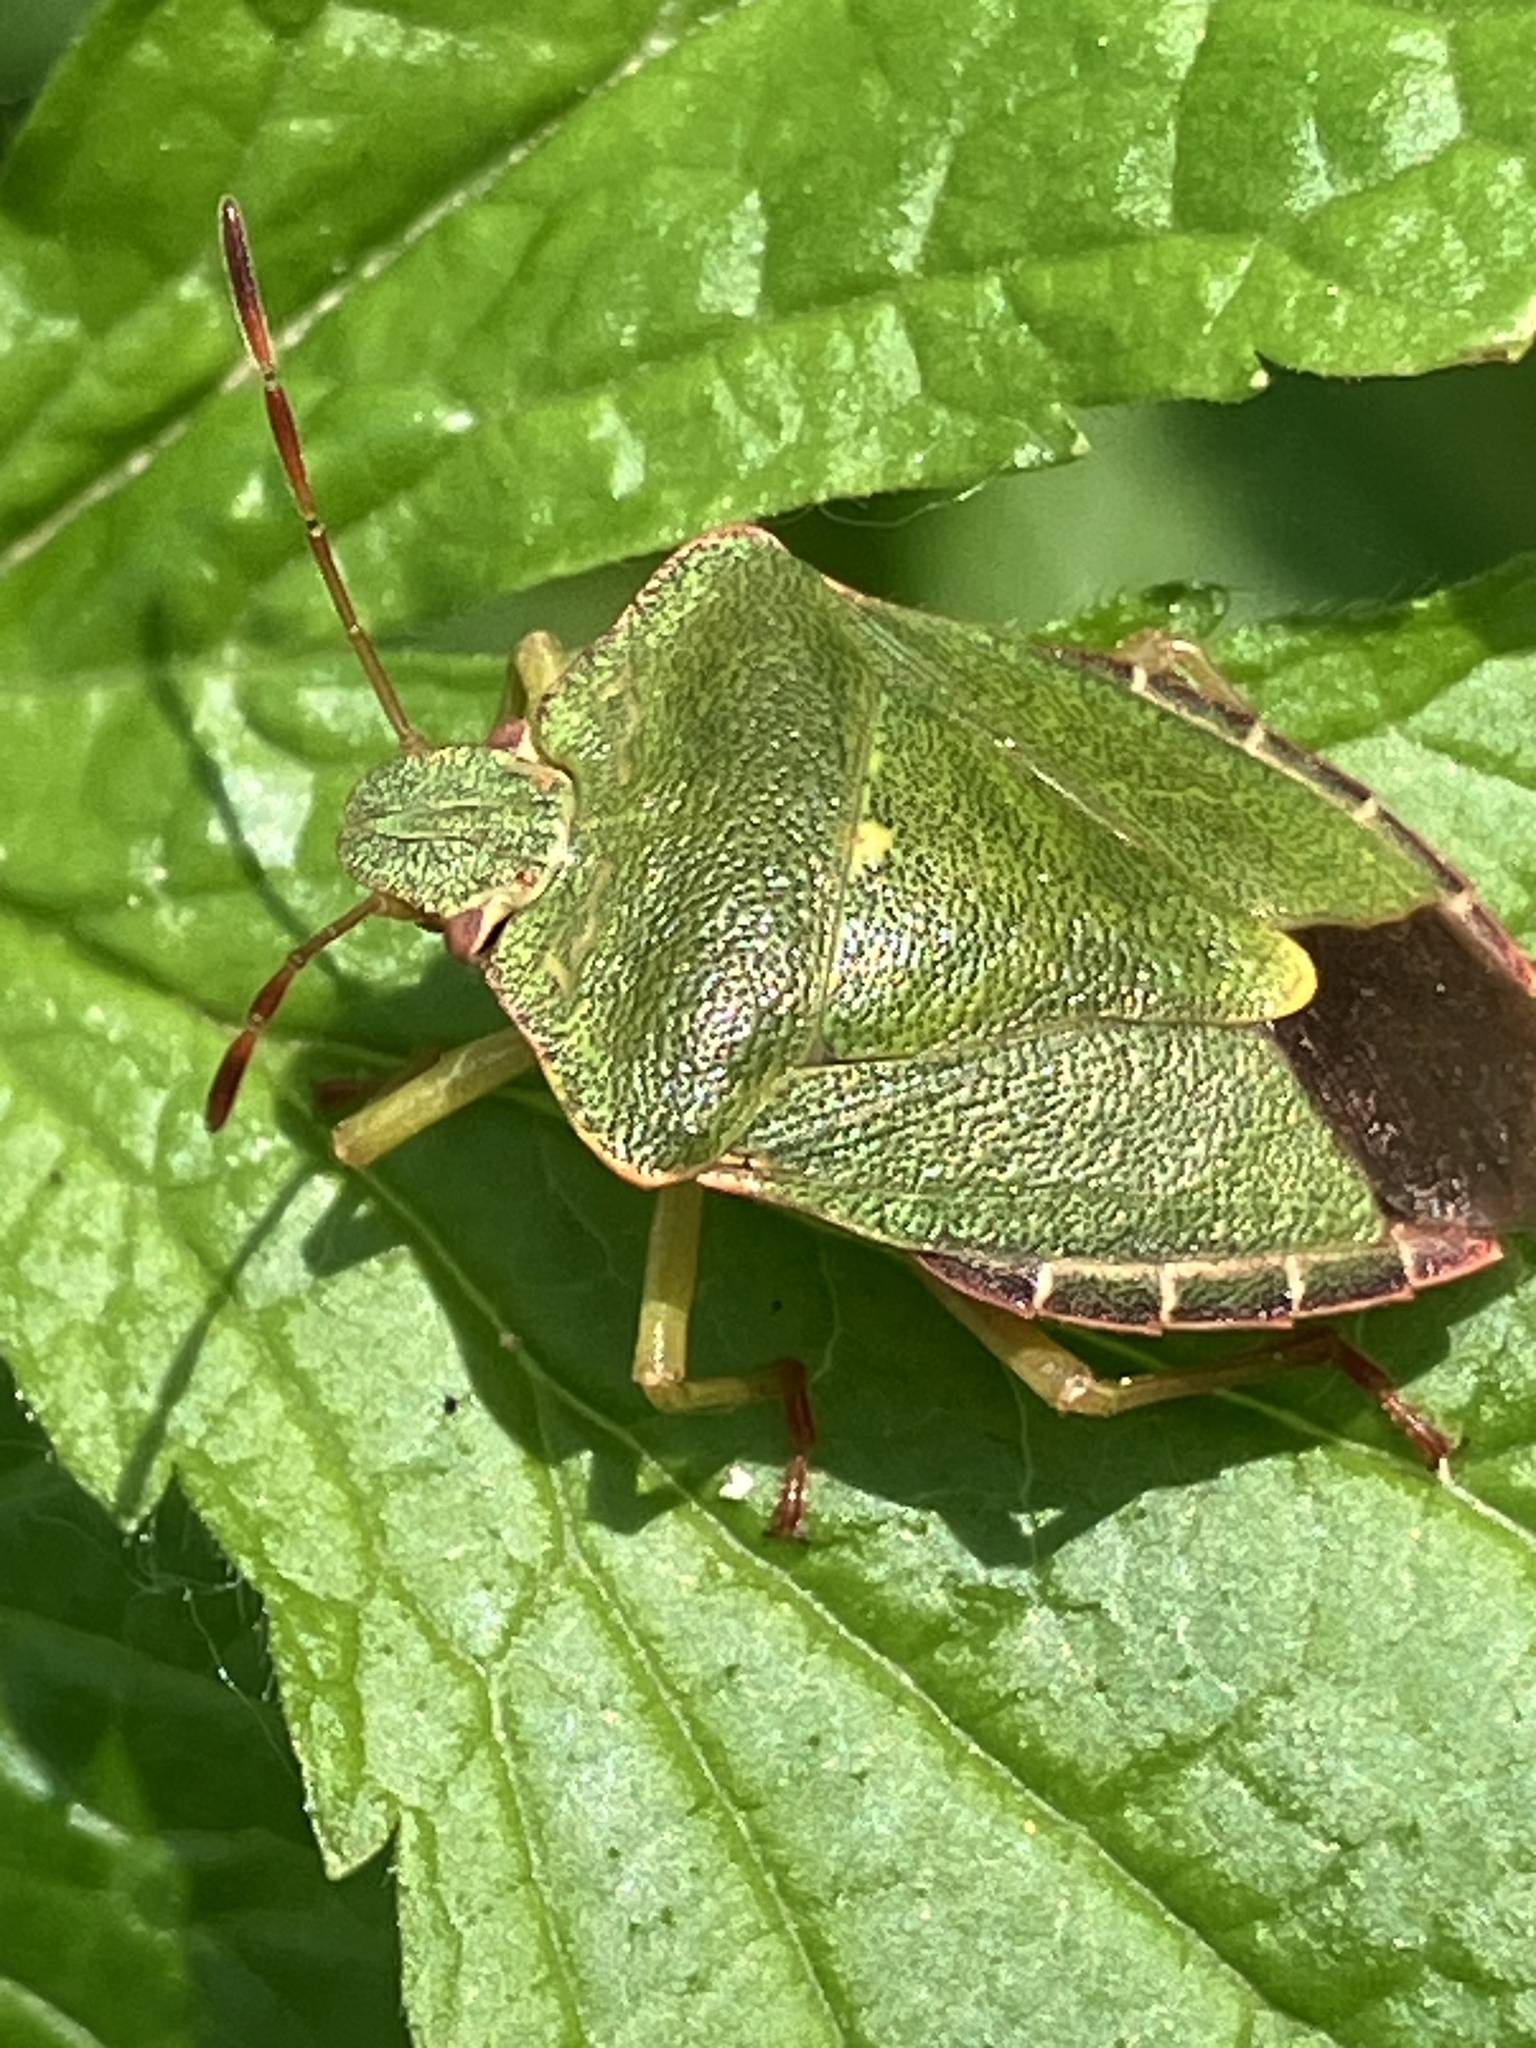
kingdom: Animalia
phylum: Arthropoda
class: Insecta
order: Hemiptera
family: Pentatomidae
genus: Palomena
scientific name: Palomena prasina
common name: Green shieldbug
